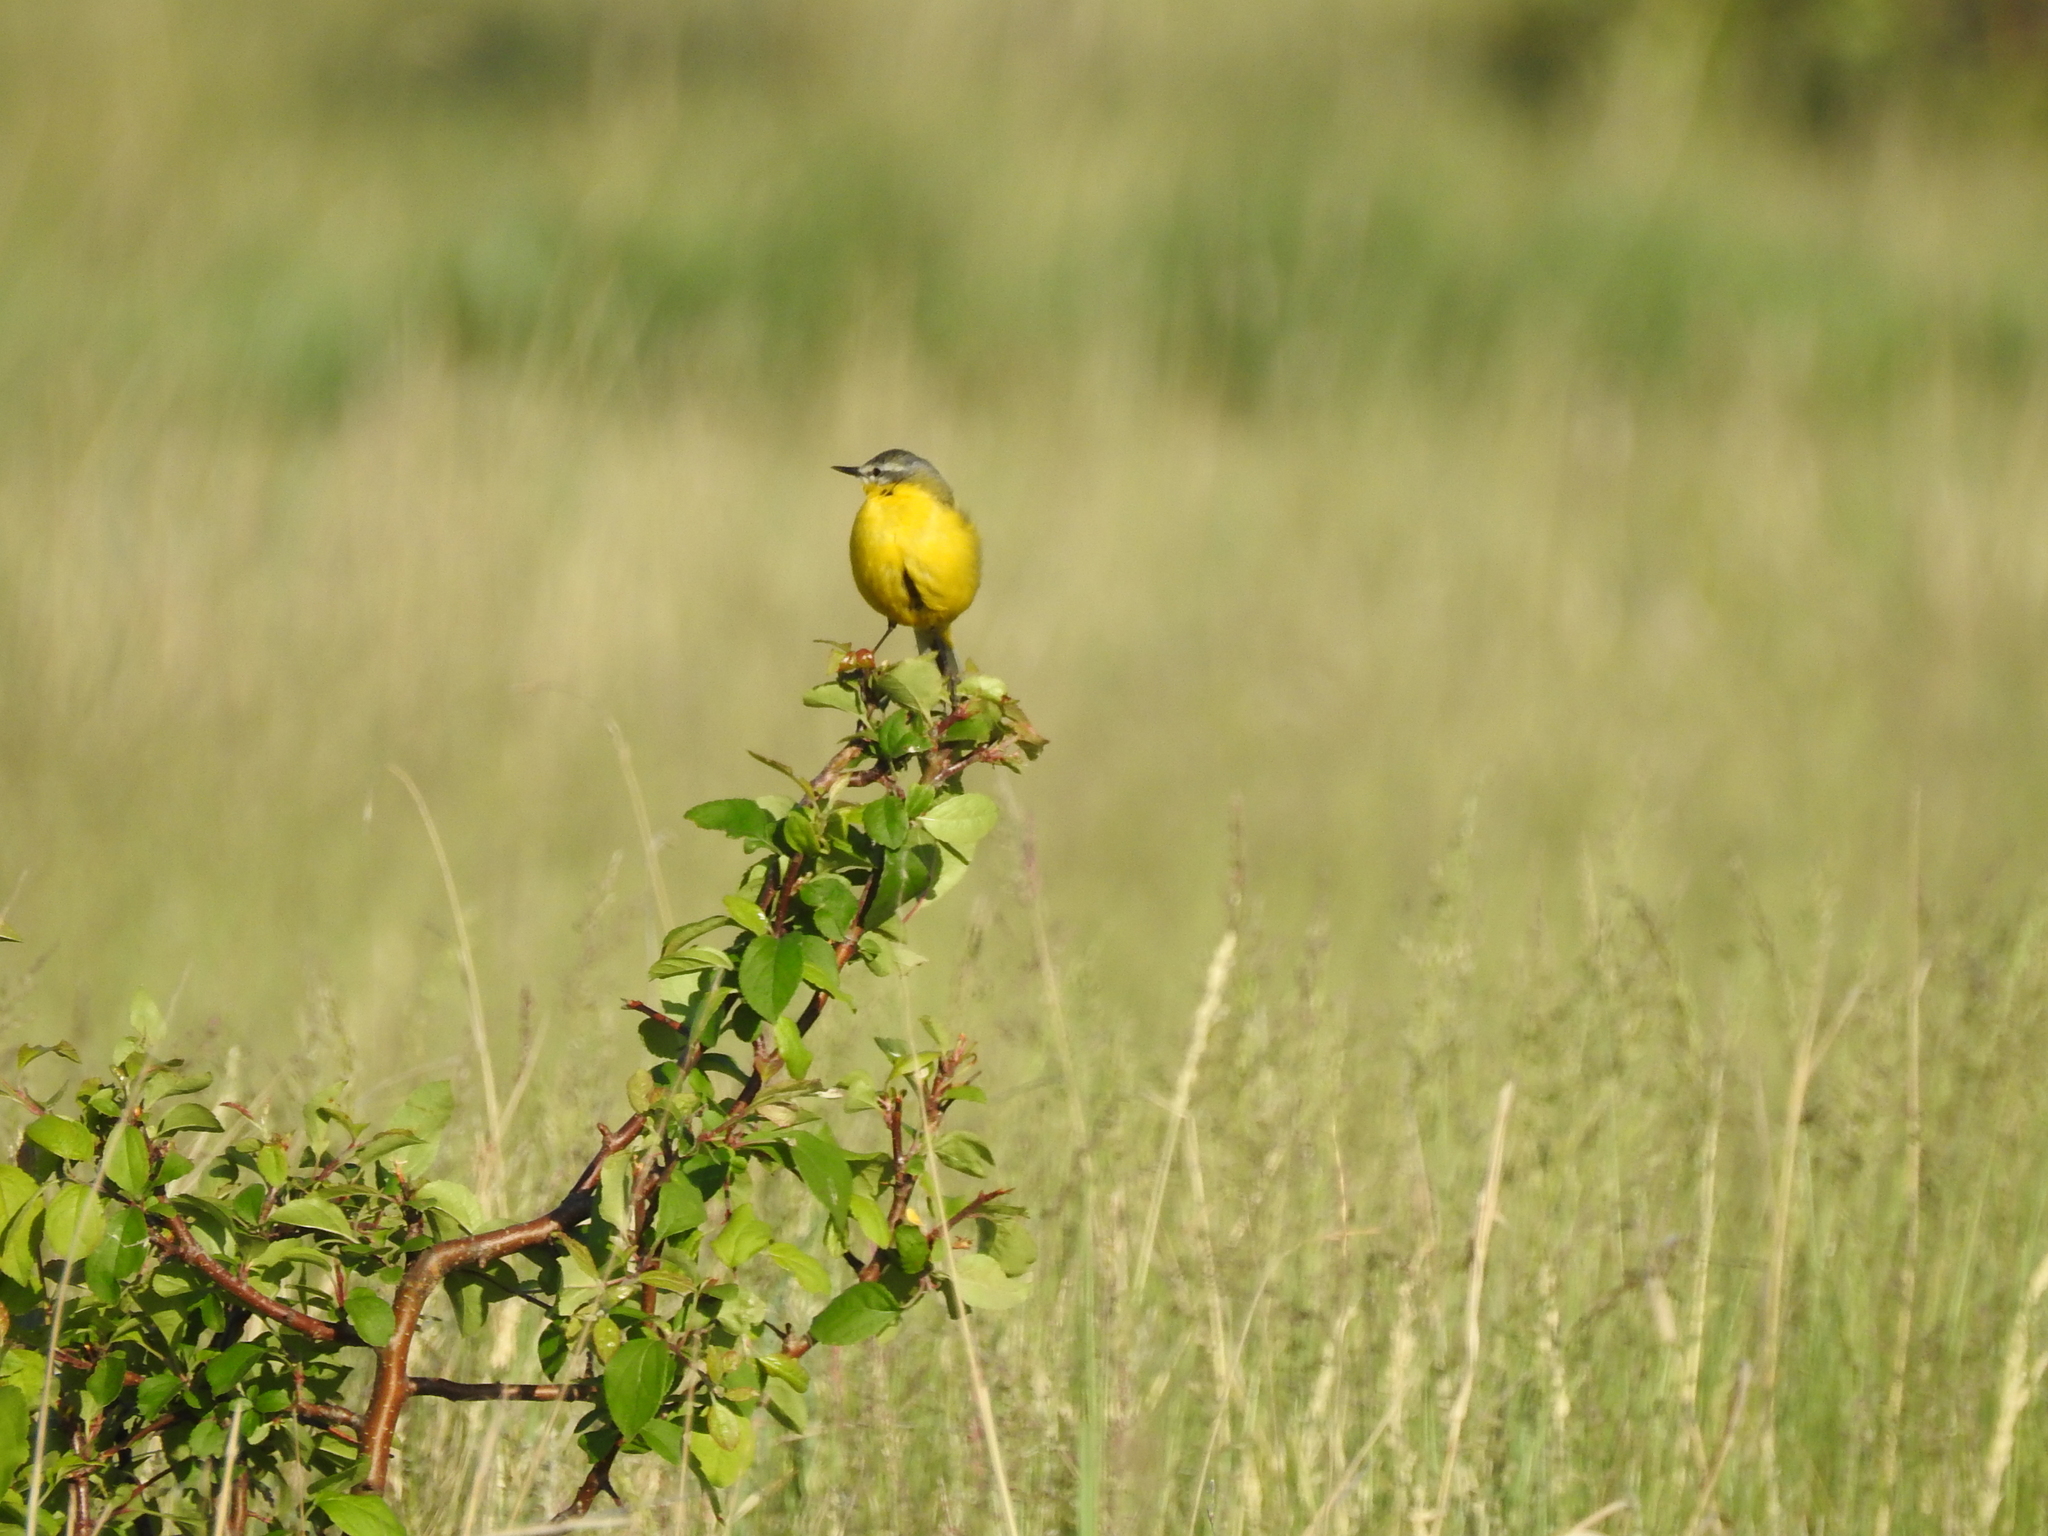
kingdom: Animalia
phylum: Chordata
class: Aves
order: Passeriformes
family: Motacillidae
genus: Motacilla
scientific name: Motacilla flava
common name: Western yellow wagtail
